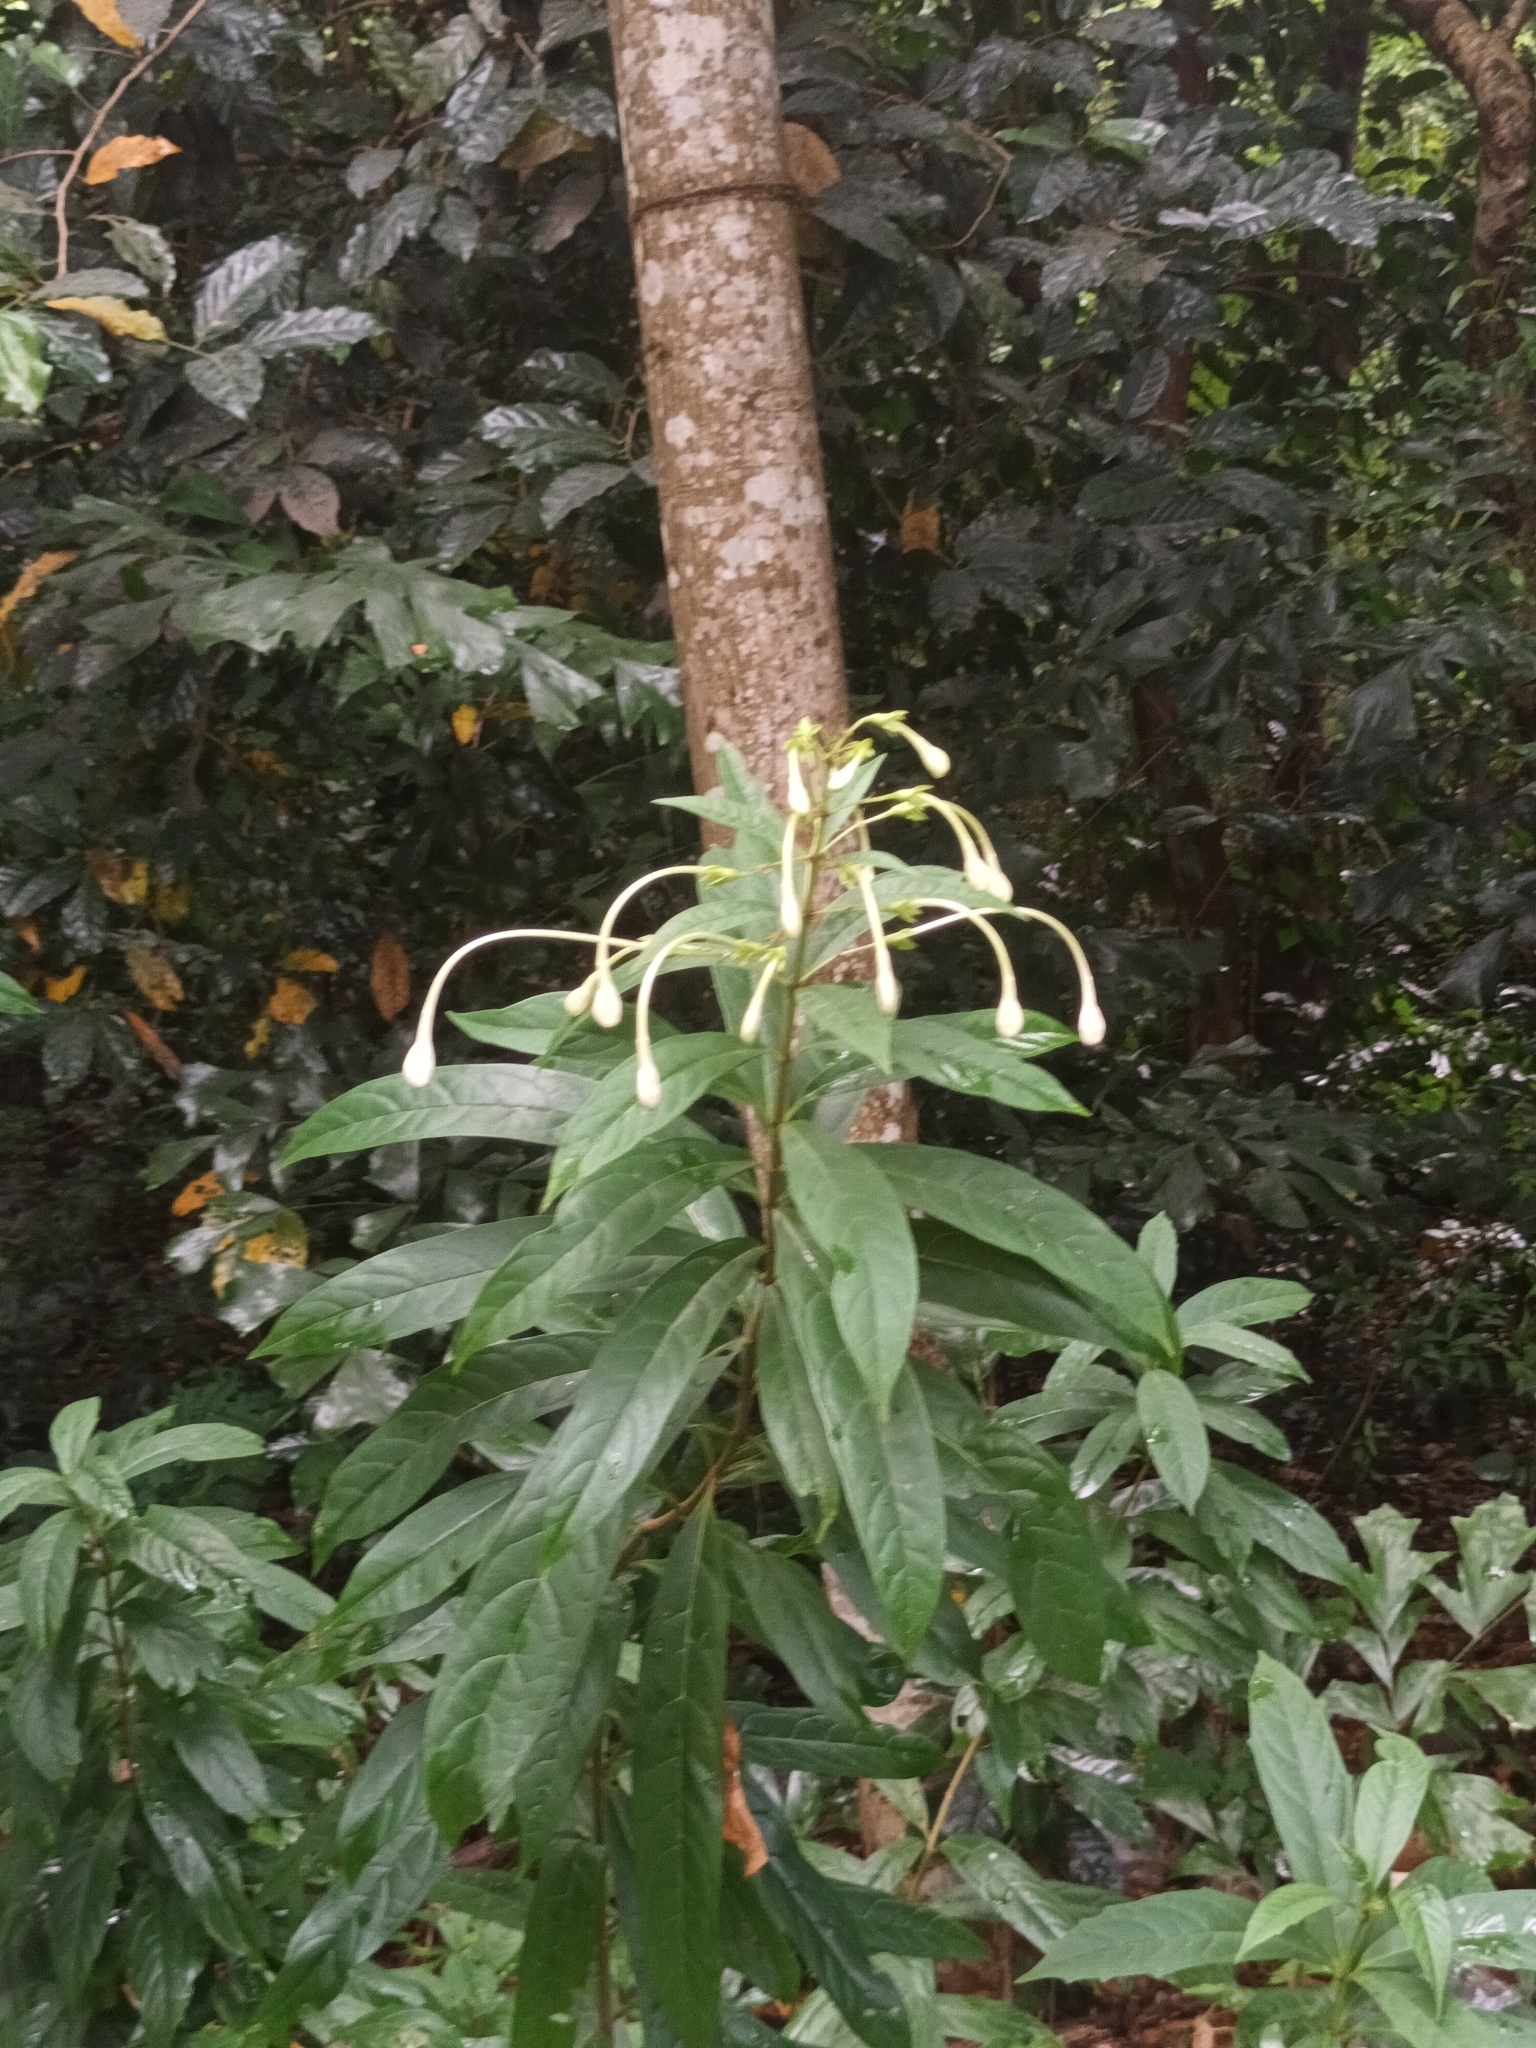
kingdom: Plantae
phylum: Tracheophyta
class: Magnoliopsida
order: Lamiales
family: Lamiaceae
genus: Clerodendrum
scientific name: Clerodendrum indicum
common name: Turk's turbin
